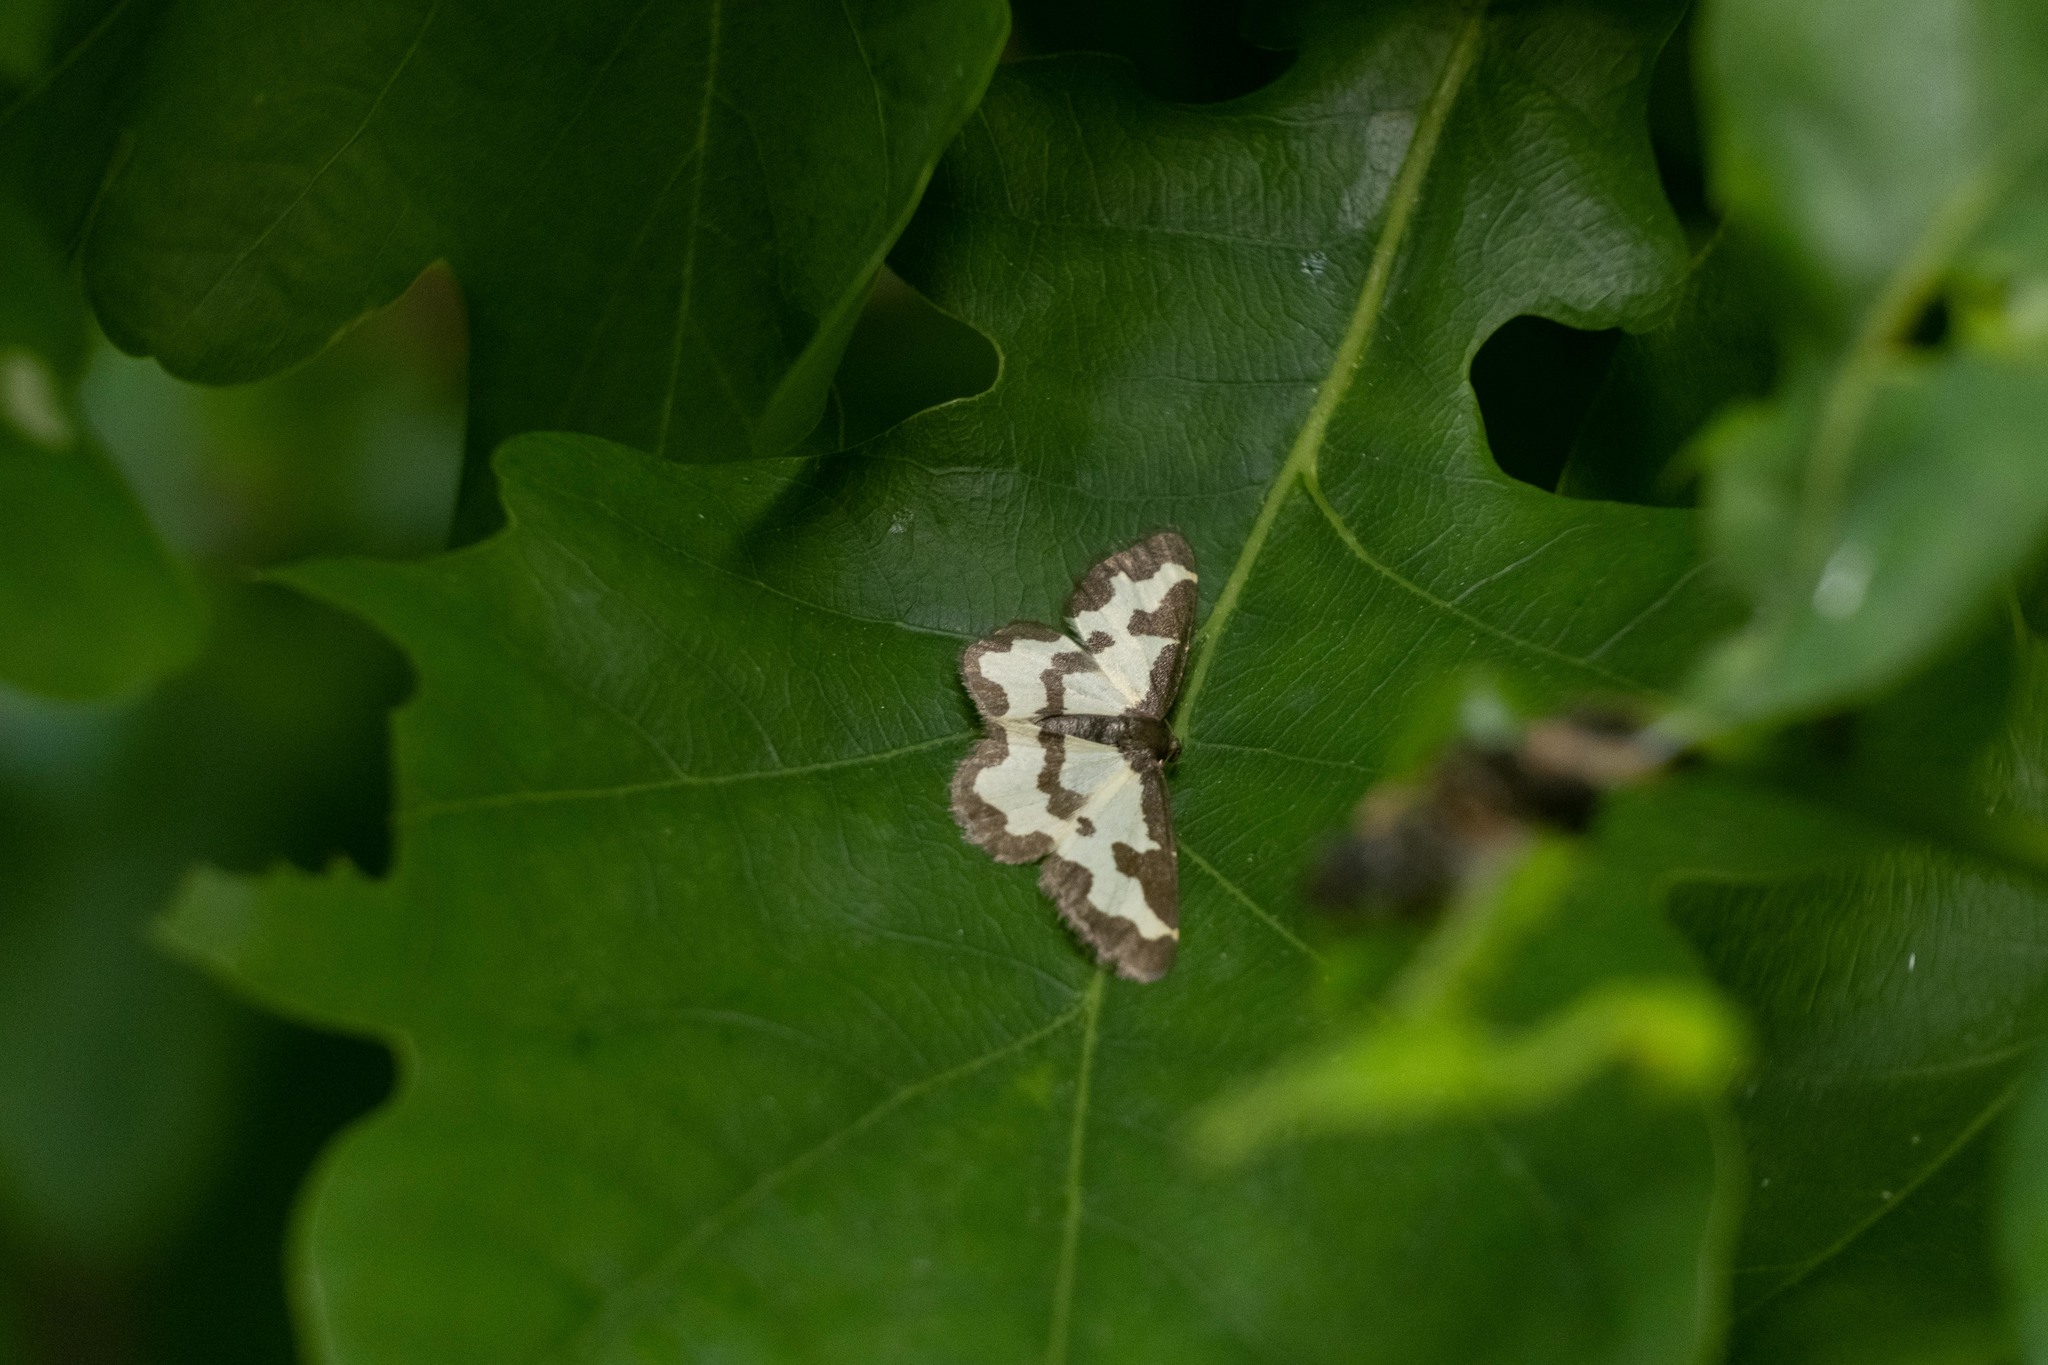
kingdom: Animalia
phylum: Arthropoda
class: Insecta
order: Lepidoptera
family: Geometridae
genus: Lomaspilis
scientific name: Lomaspilis marginata
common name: Clouded border
